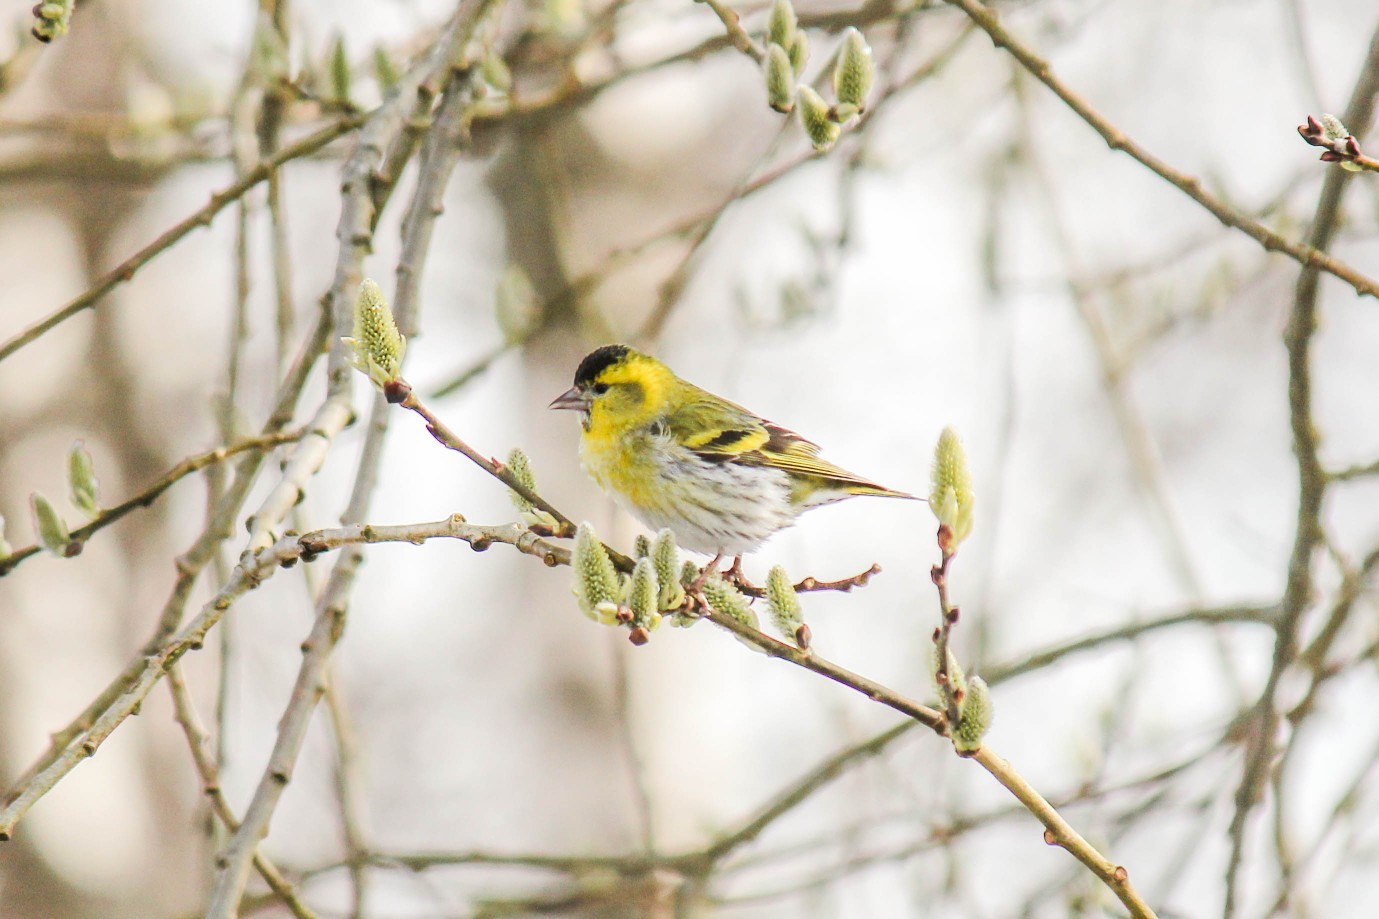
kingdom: Animalia
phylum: Chordata
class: Aves
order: Passeriformes
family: Fringillidae
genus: Spinus
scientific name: Spinus spinus
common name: Eurasian siskin
